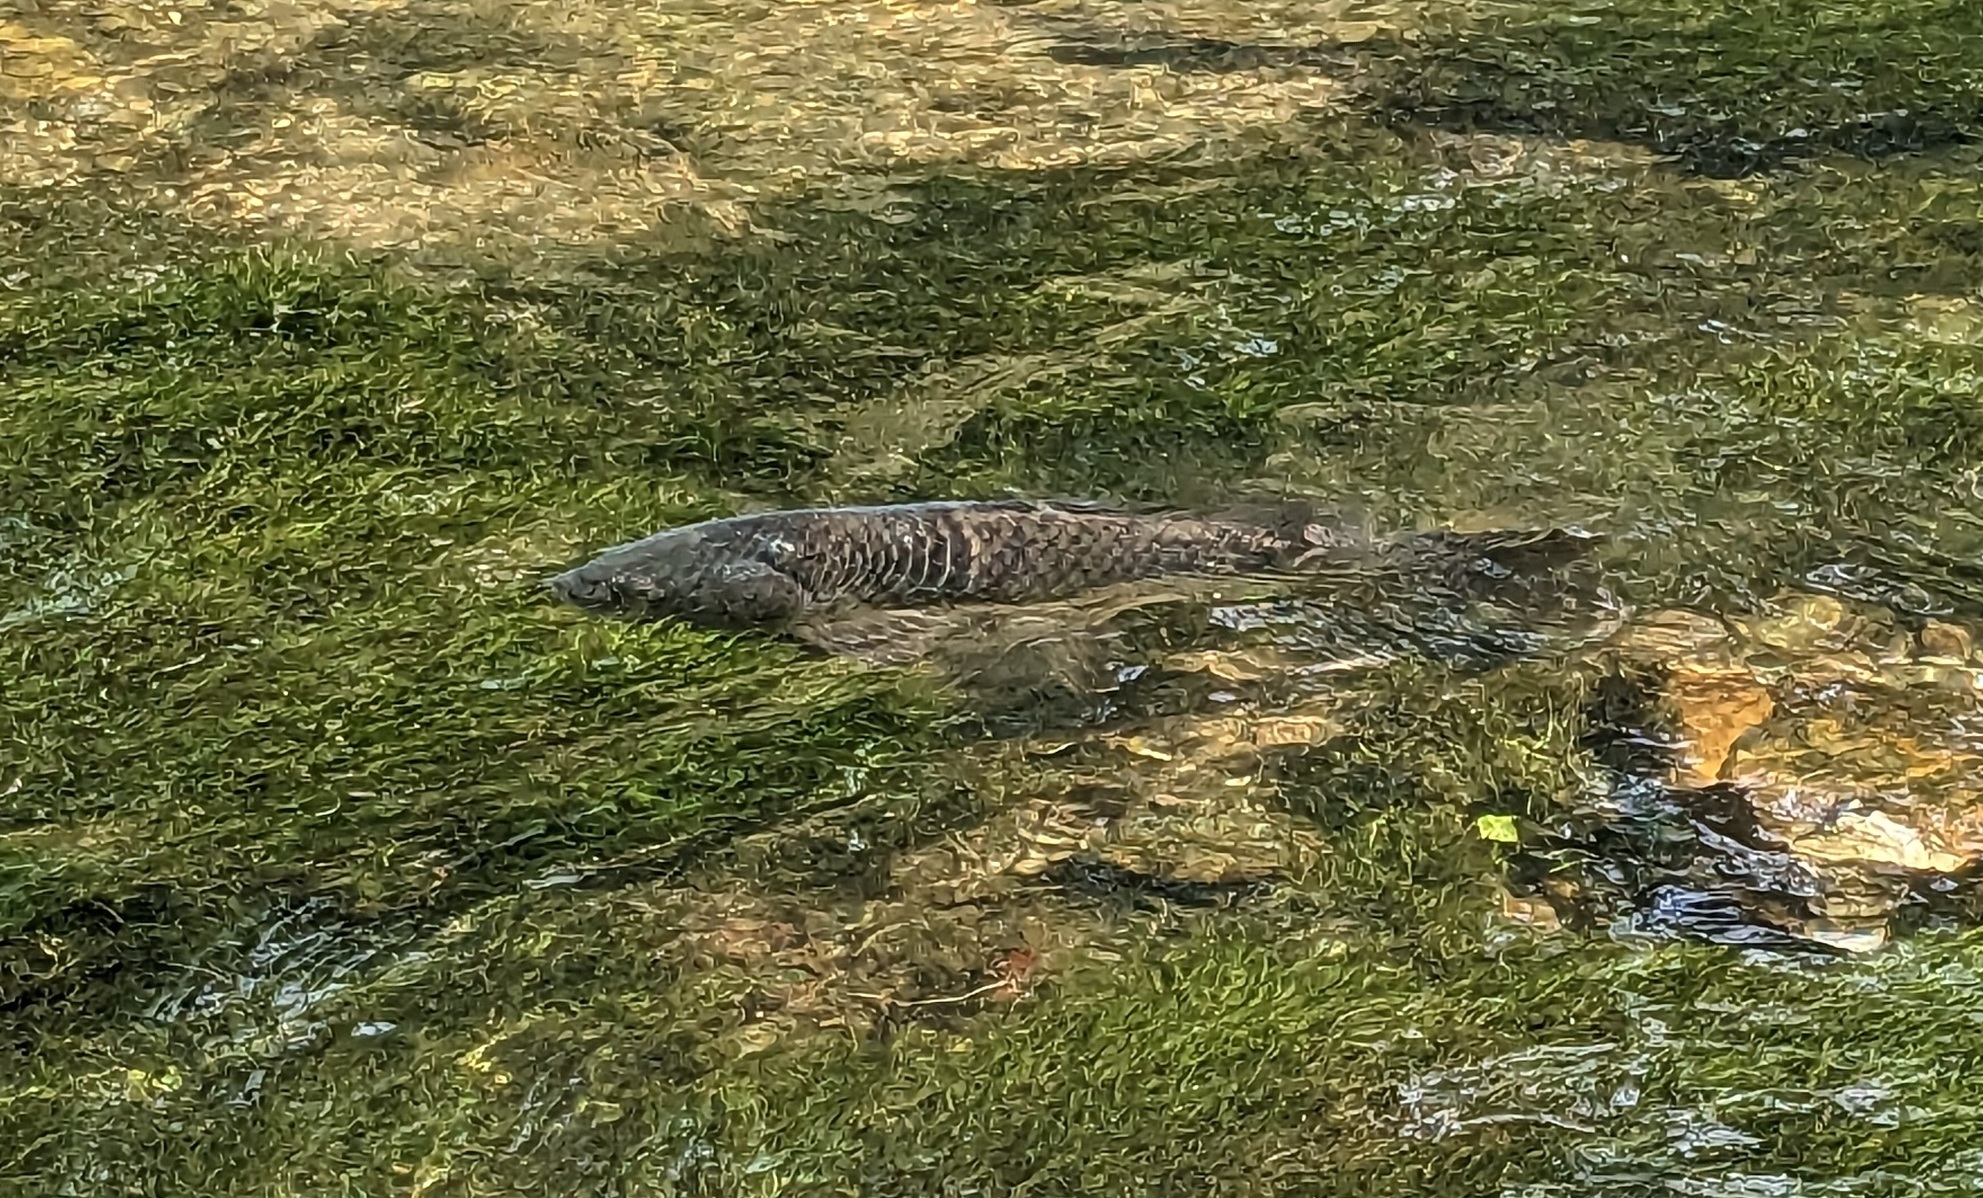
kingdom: Animalia
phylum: Chordata
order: Cypriniformes
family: Cyprinidae
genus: Cyprinus
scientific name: Cyprinus carpio
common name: Common carp
